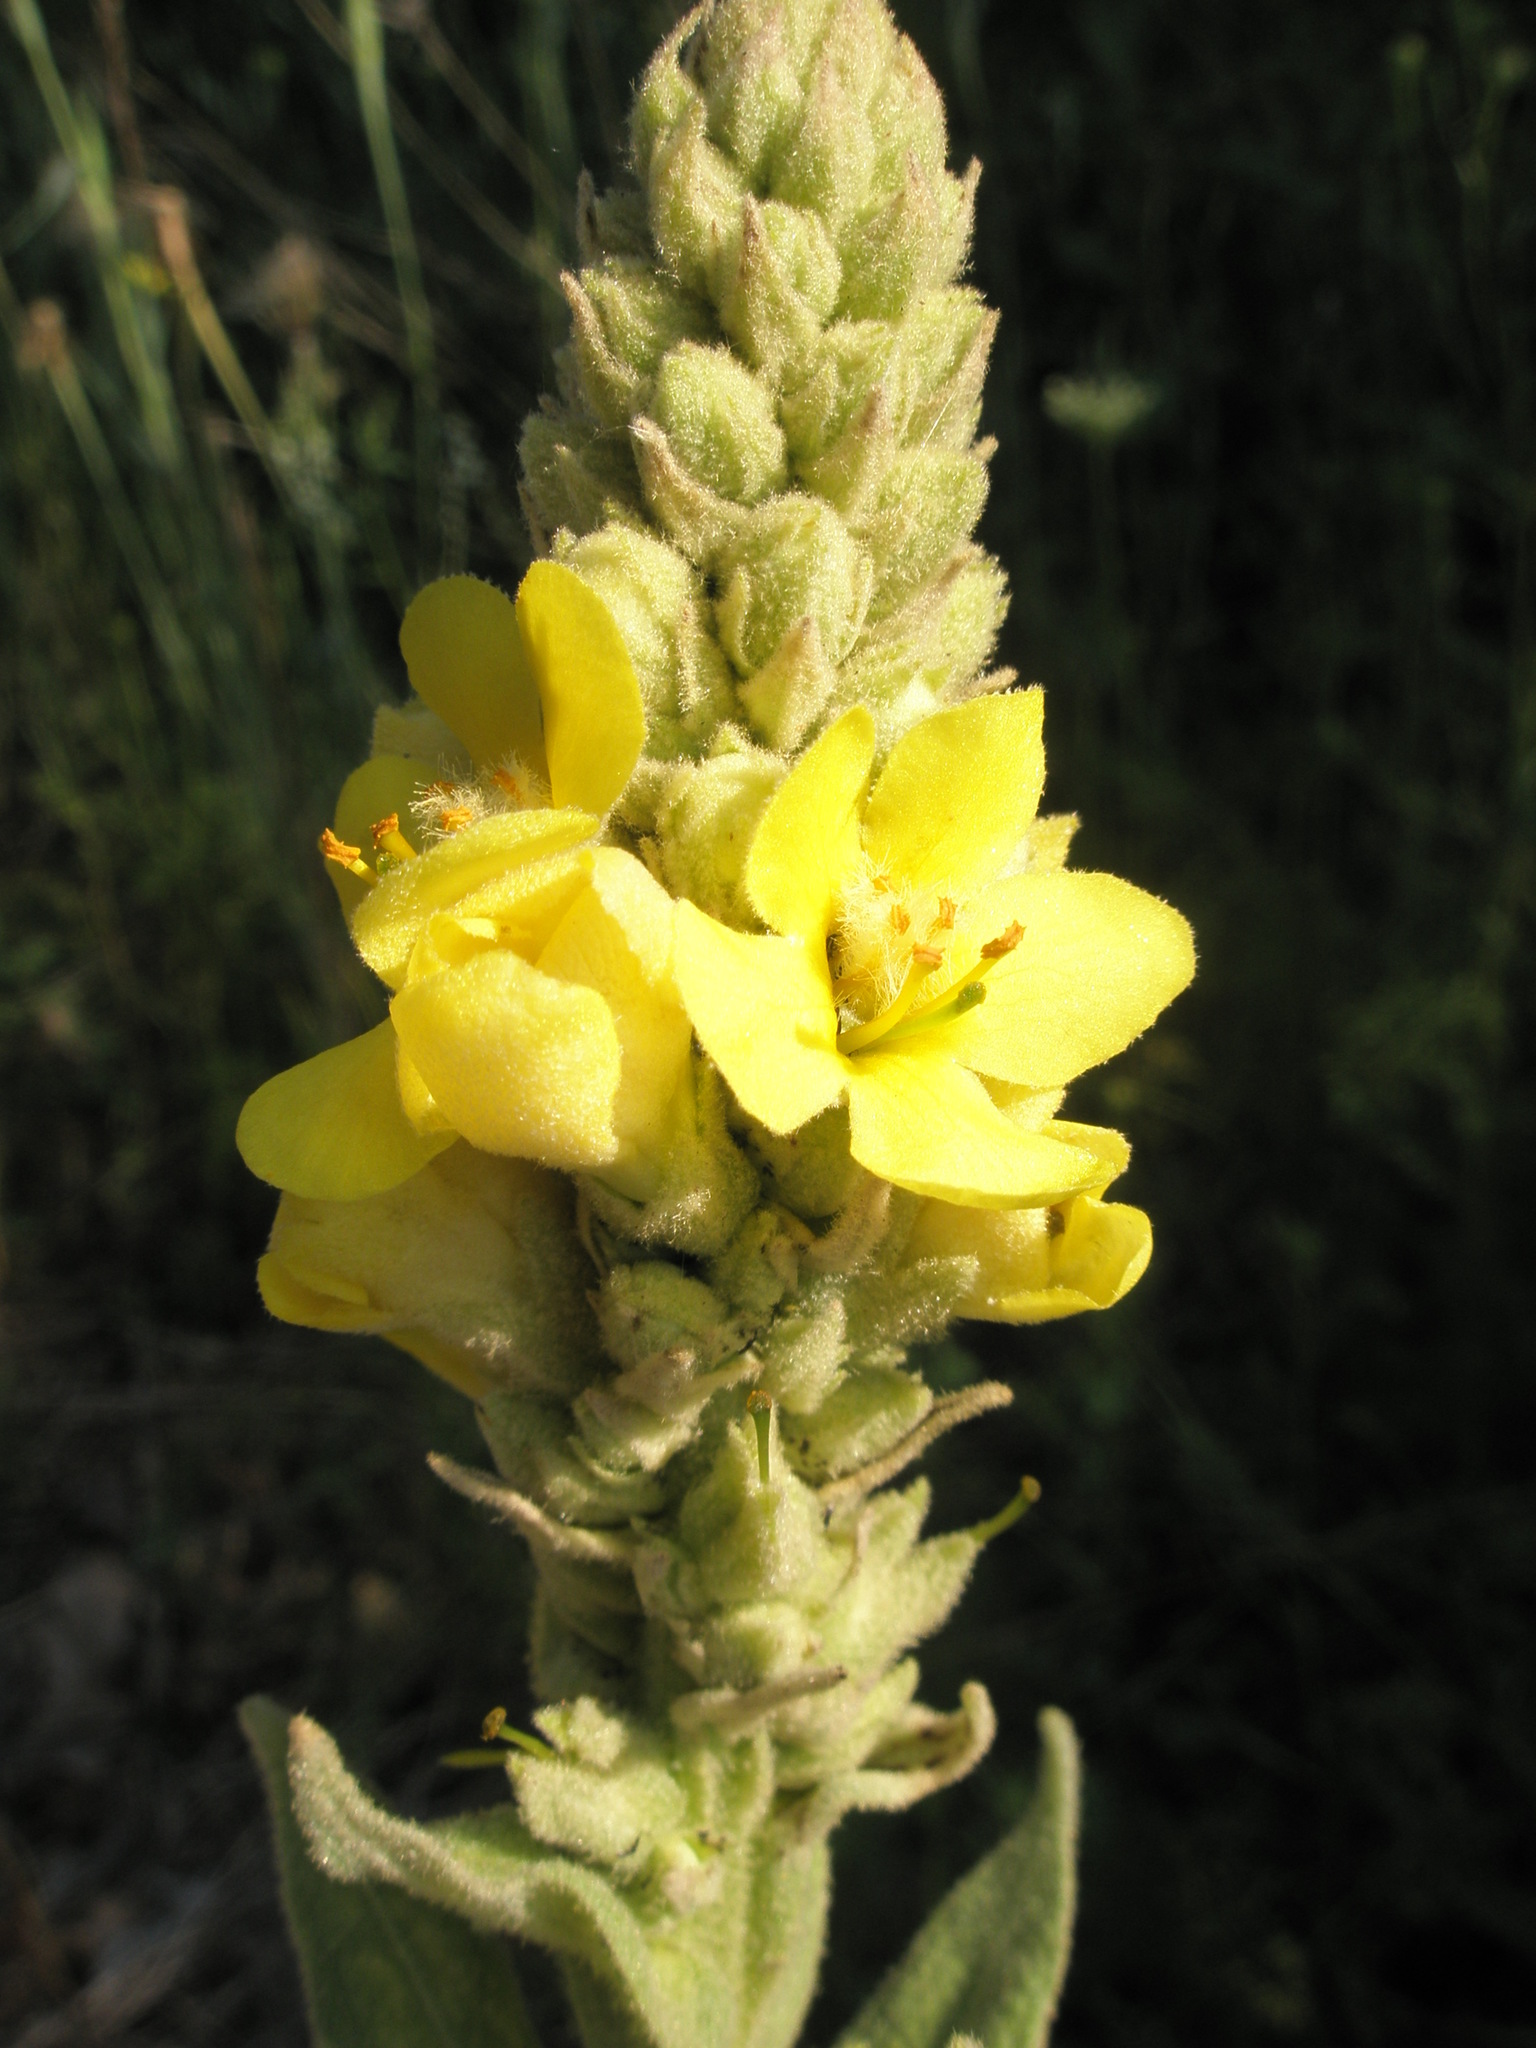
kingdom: Plantae
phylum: Tracheophyta
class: Magnoliopsida
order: Lamiales
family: Scrophulariaceae
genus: Verbascum
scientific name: Verbascum thapsus
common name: Common mullein
